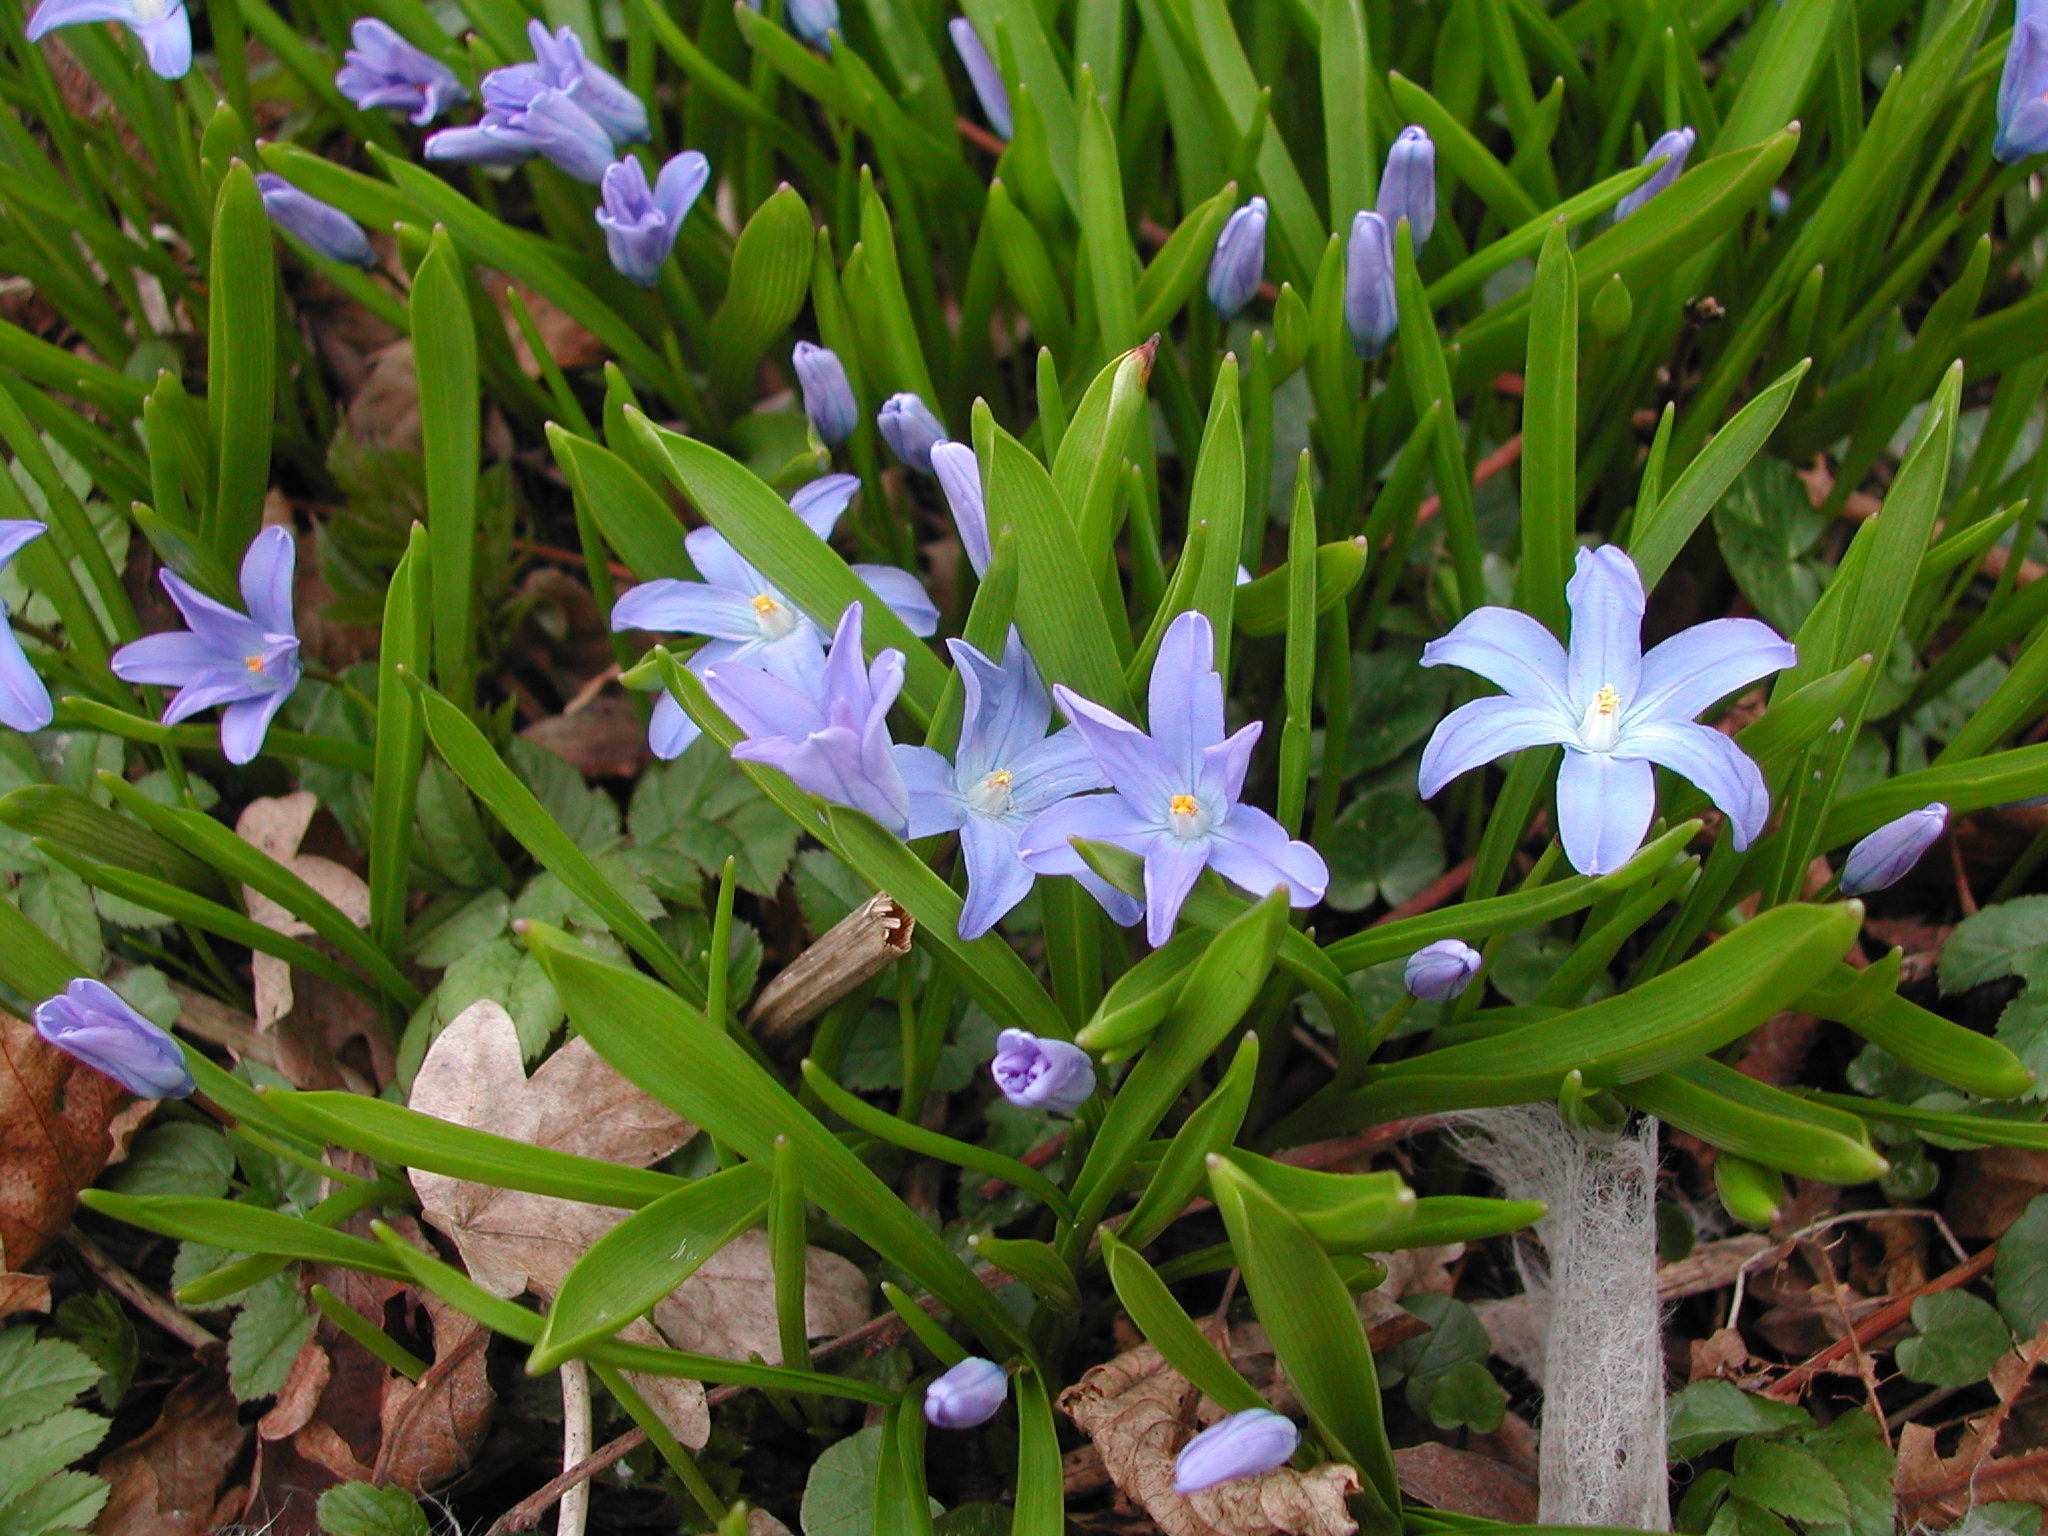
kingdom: Plantae
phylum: Tracheophyta
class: Liliopsida
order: Asparagales
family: Asparagaceae
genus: Scilla
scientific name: Scilla luciliae
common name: Boissier's glory-of-the-snow
